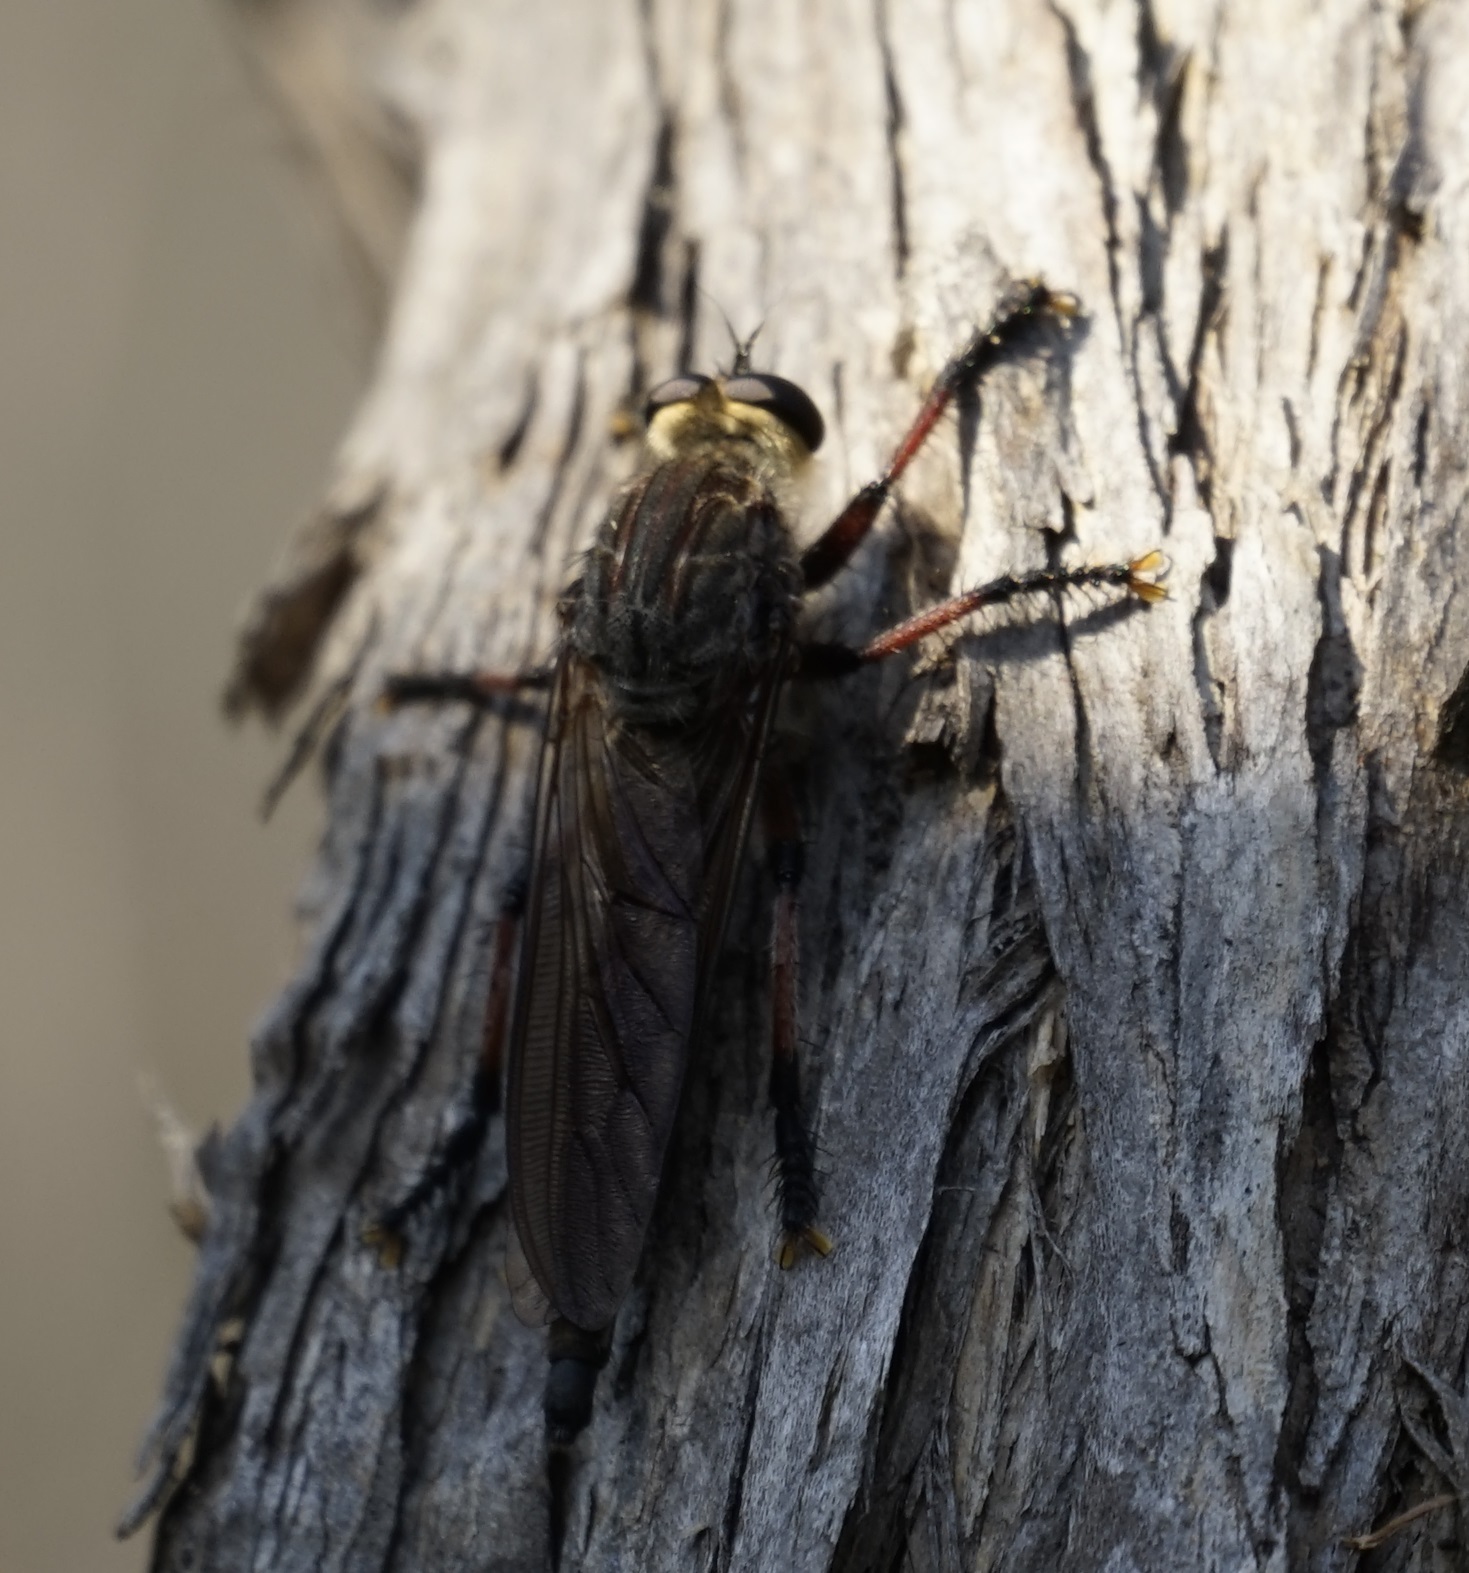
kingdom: Animalia
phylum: Arthropoda
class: Insecta
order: Diptera
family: Asilidae
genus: Neoaratus
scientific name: Neoaratus hercules
